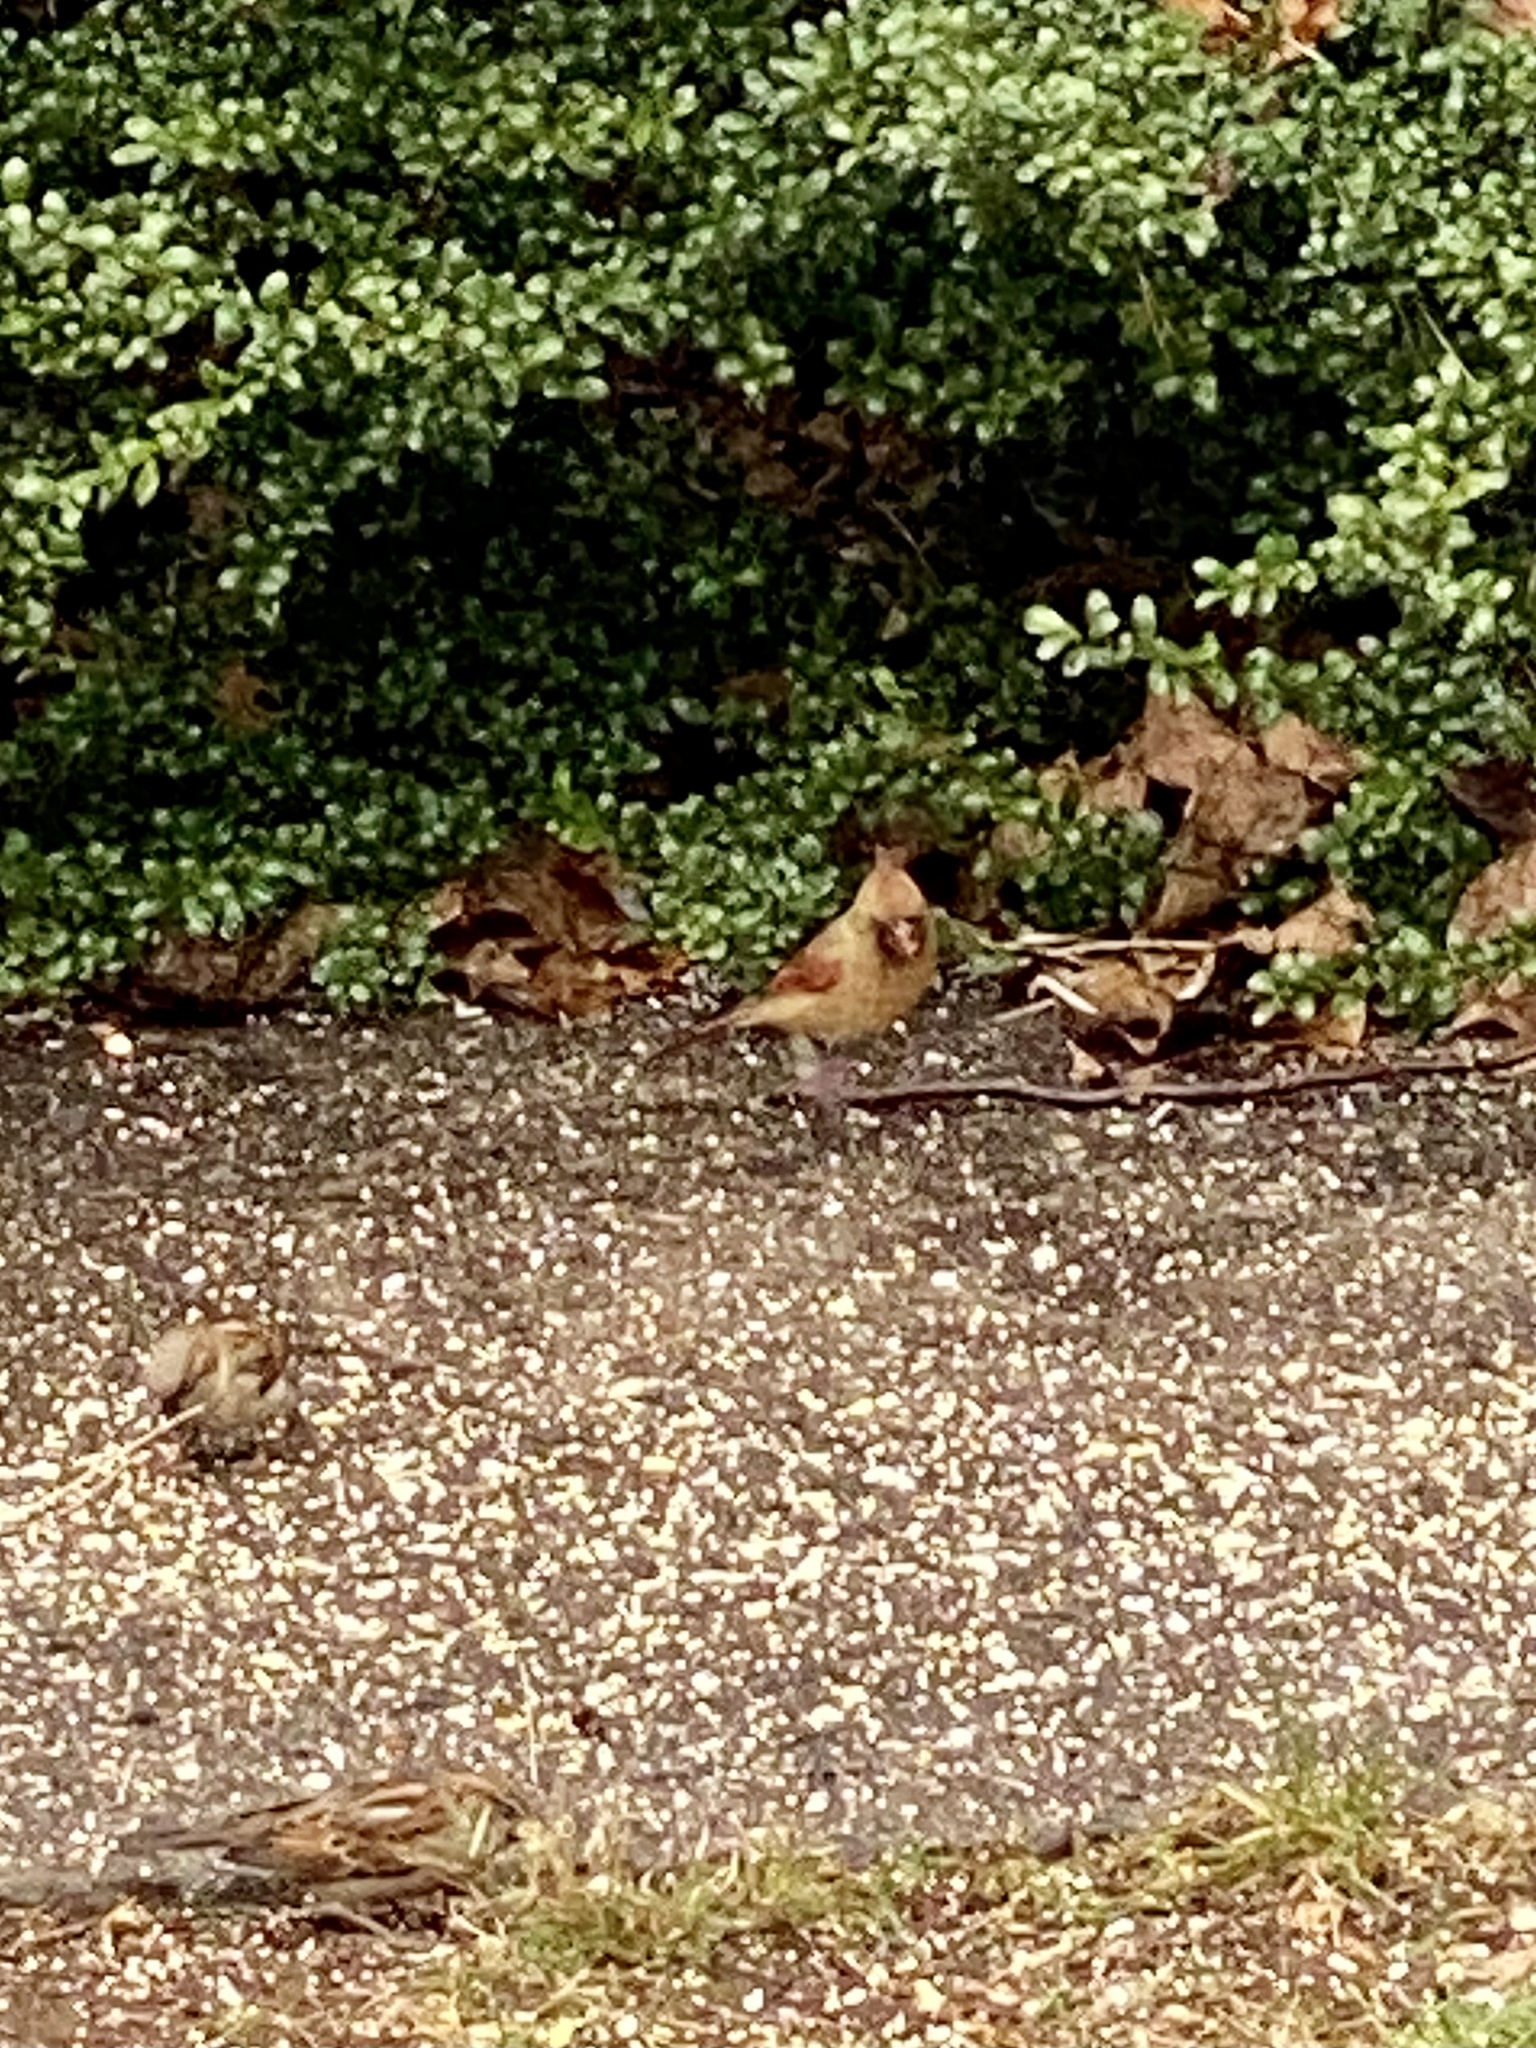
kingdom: Animalia
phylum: Chordata
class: Aves
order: Passeriformes
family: Cardinalidae
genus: Cardinalis
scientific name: Cardinalis cardinalis
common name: Northern cardinal
